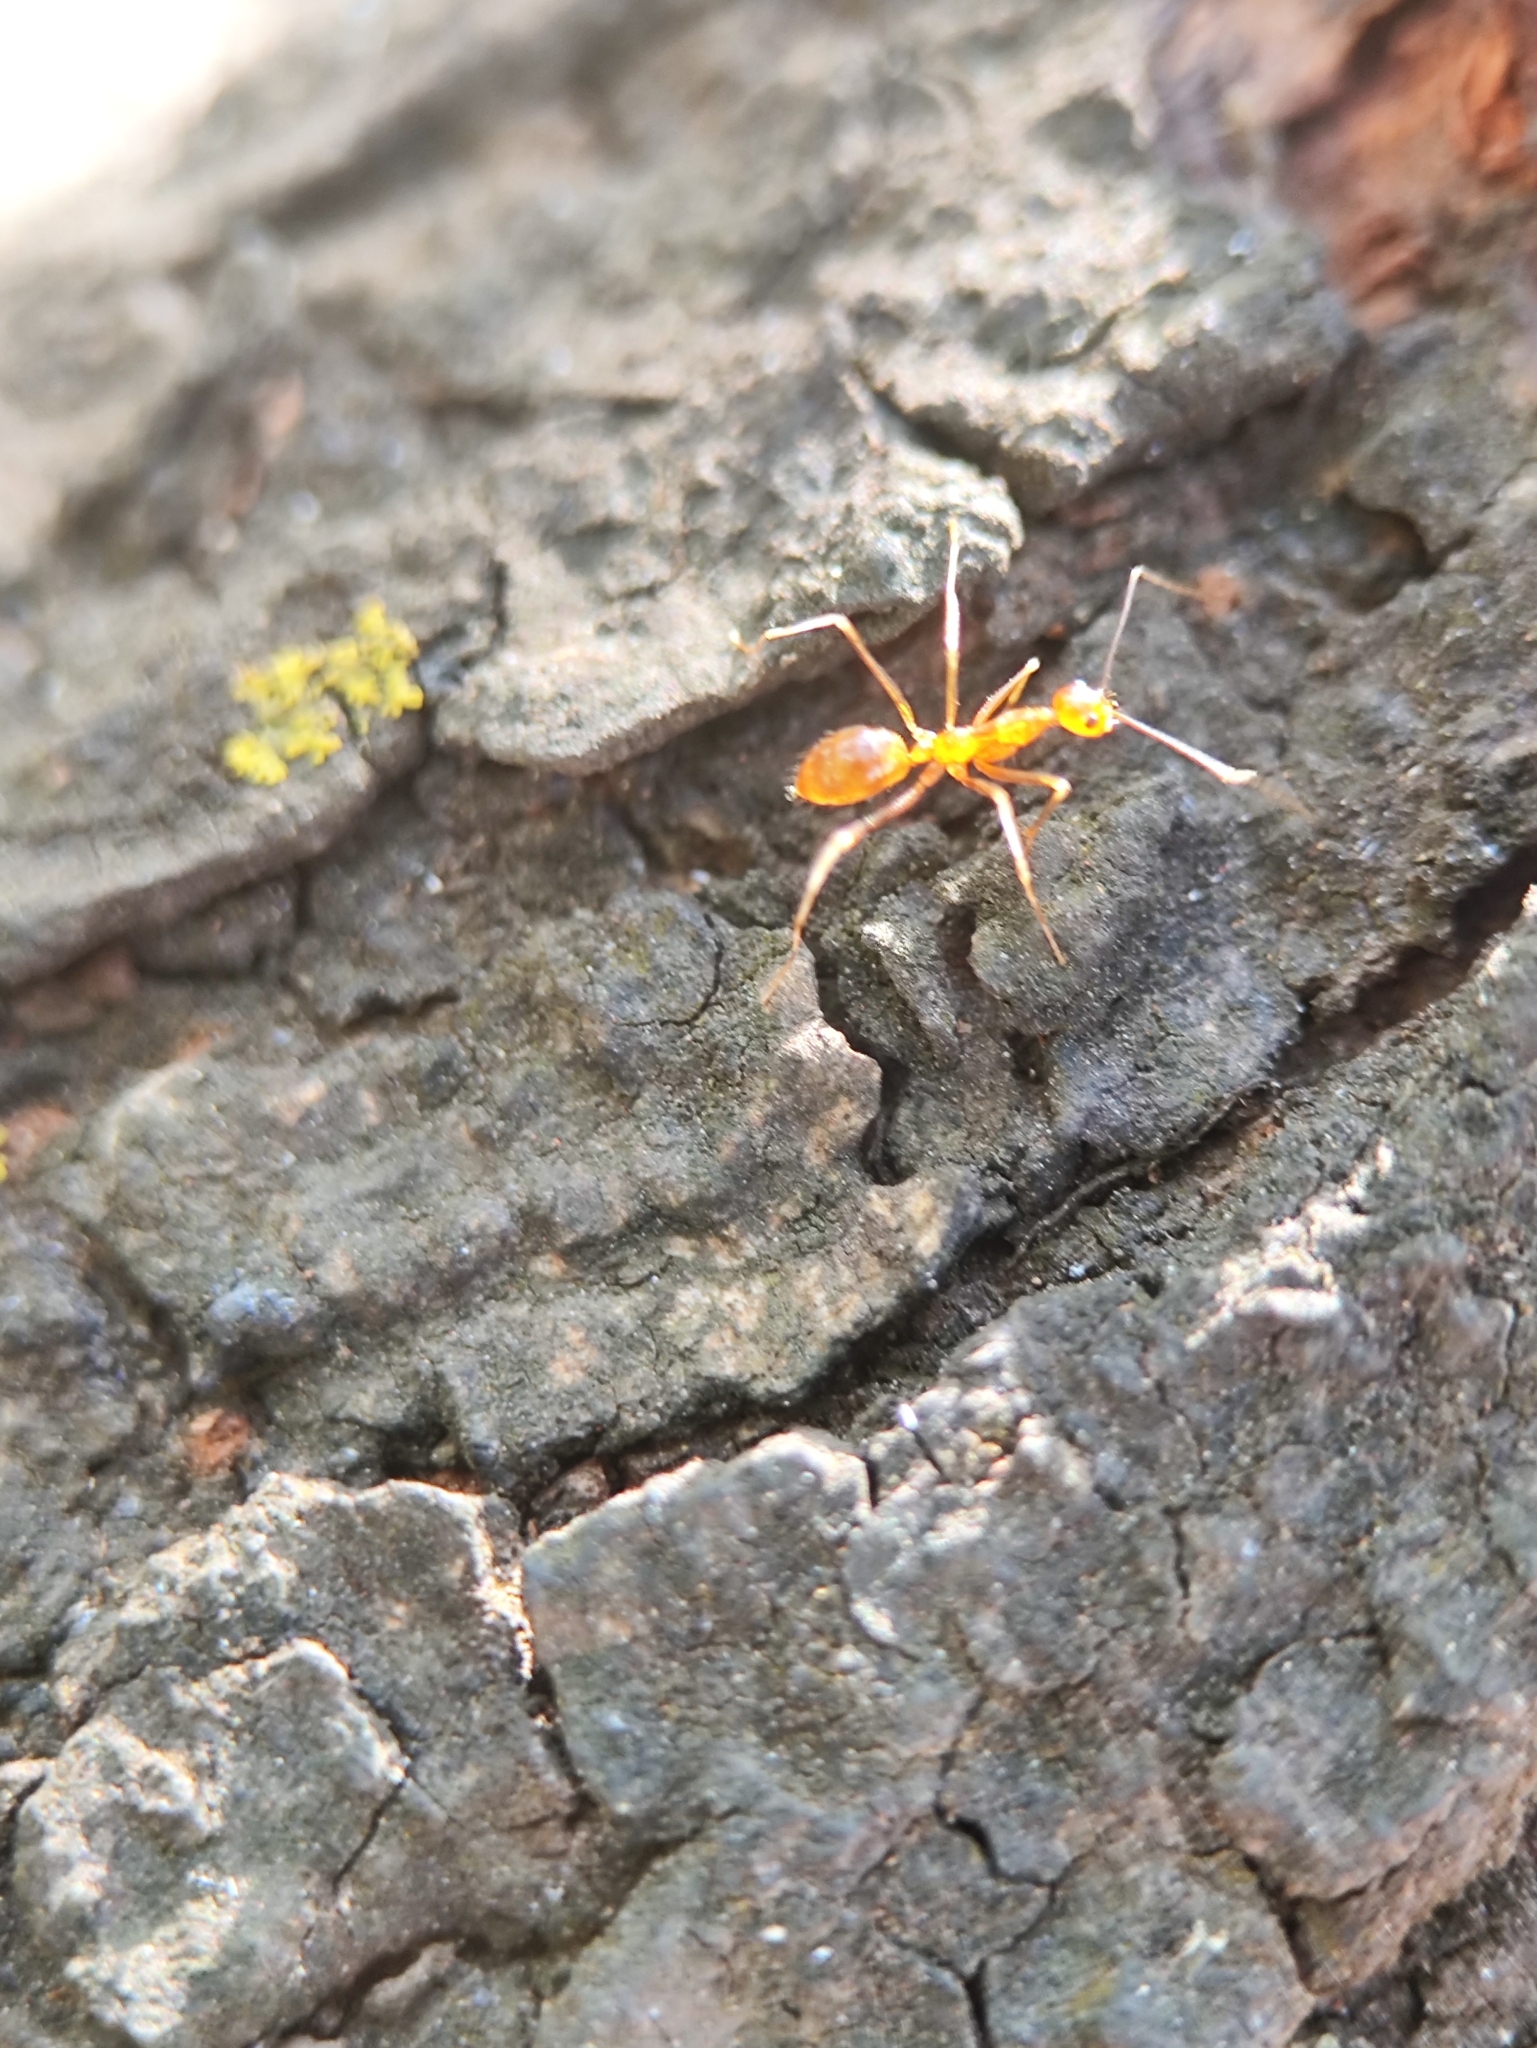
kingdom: Animalia
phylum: Arthropoda
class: Insecta
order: Hymenoptera
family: Formicidae
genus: Anoplolepis
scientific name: Anoplolepis gracilipes
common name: Ant
